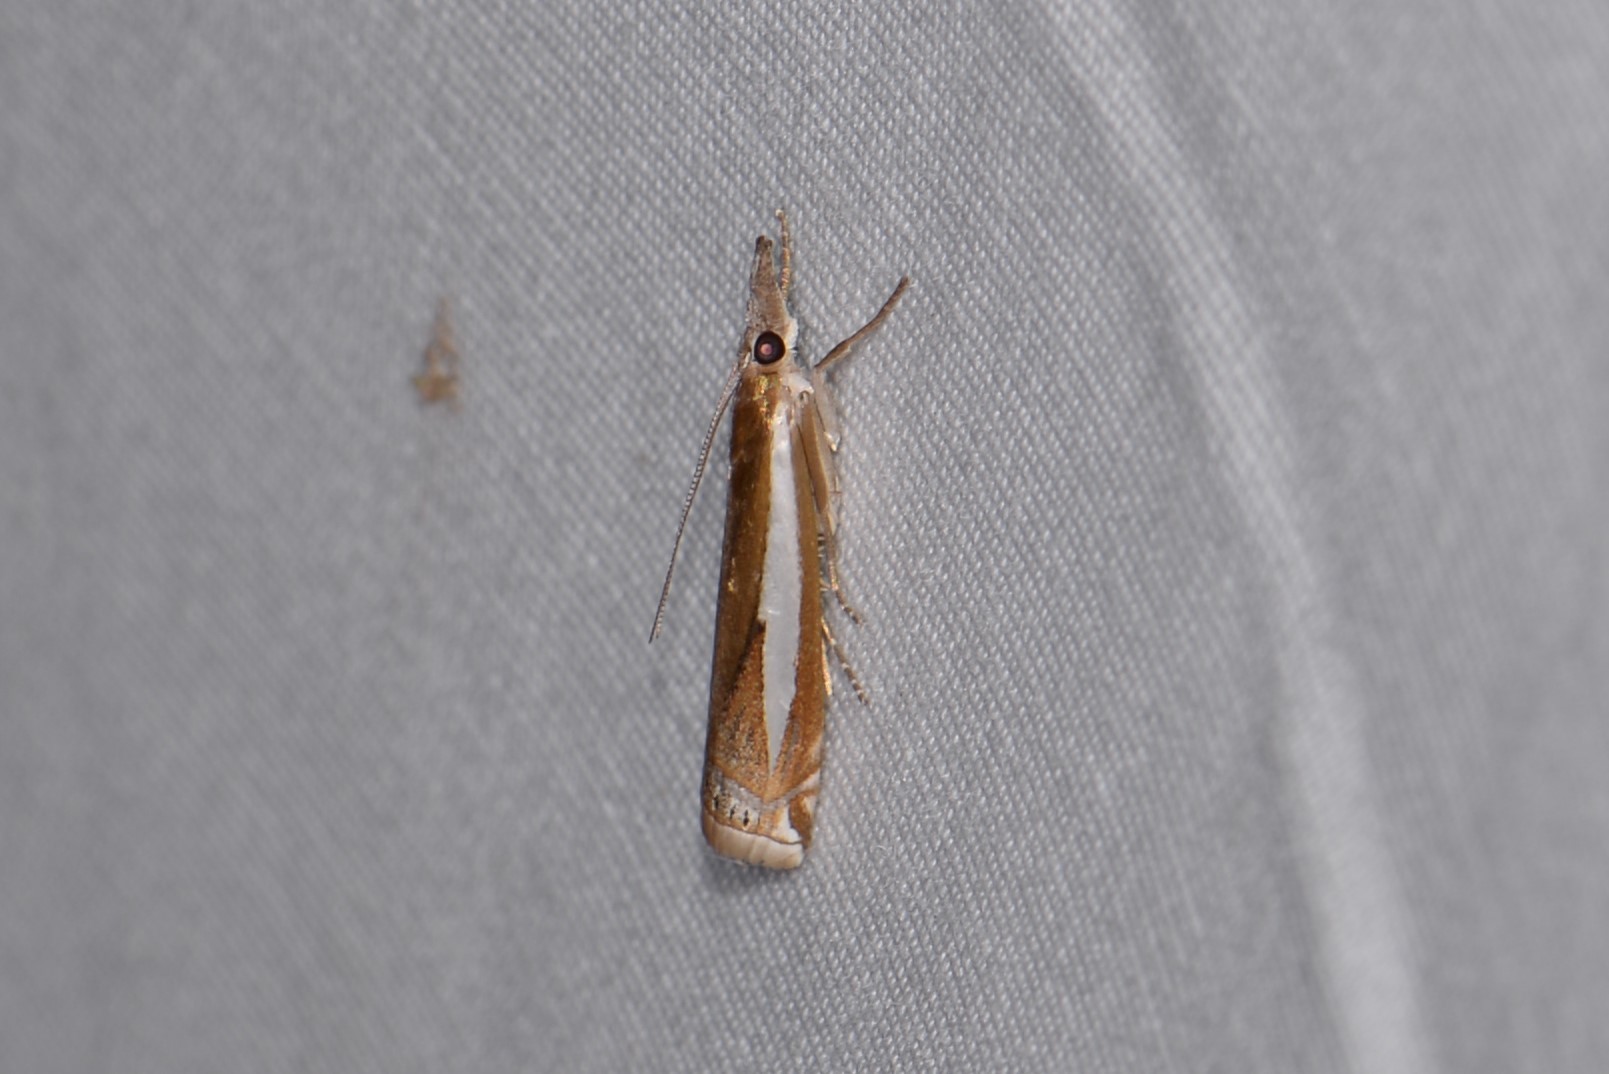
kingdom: Animalia
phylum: Arthropoda
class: Insecta
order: Lepidoptera
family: Crambidae
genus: Crambus
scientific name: Crambus praefectellus
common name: Common grass-veneer
